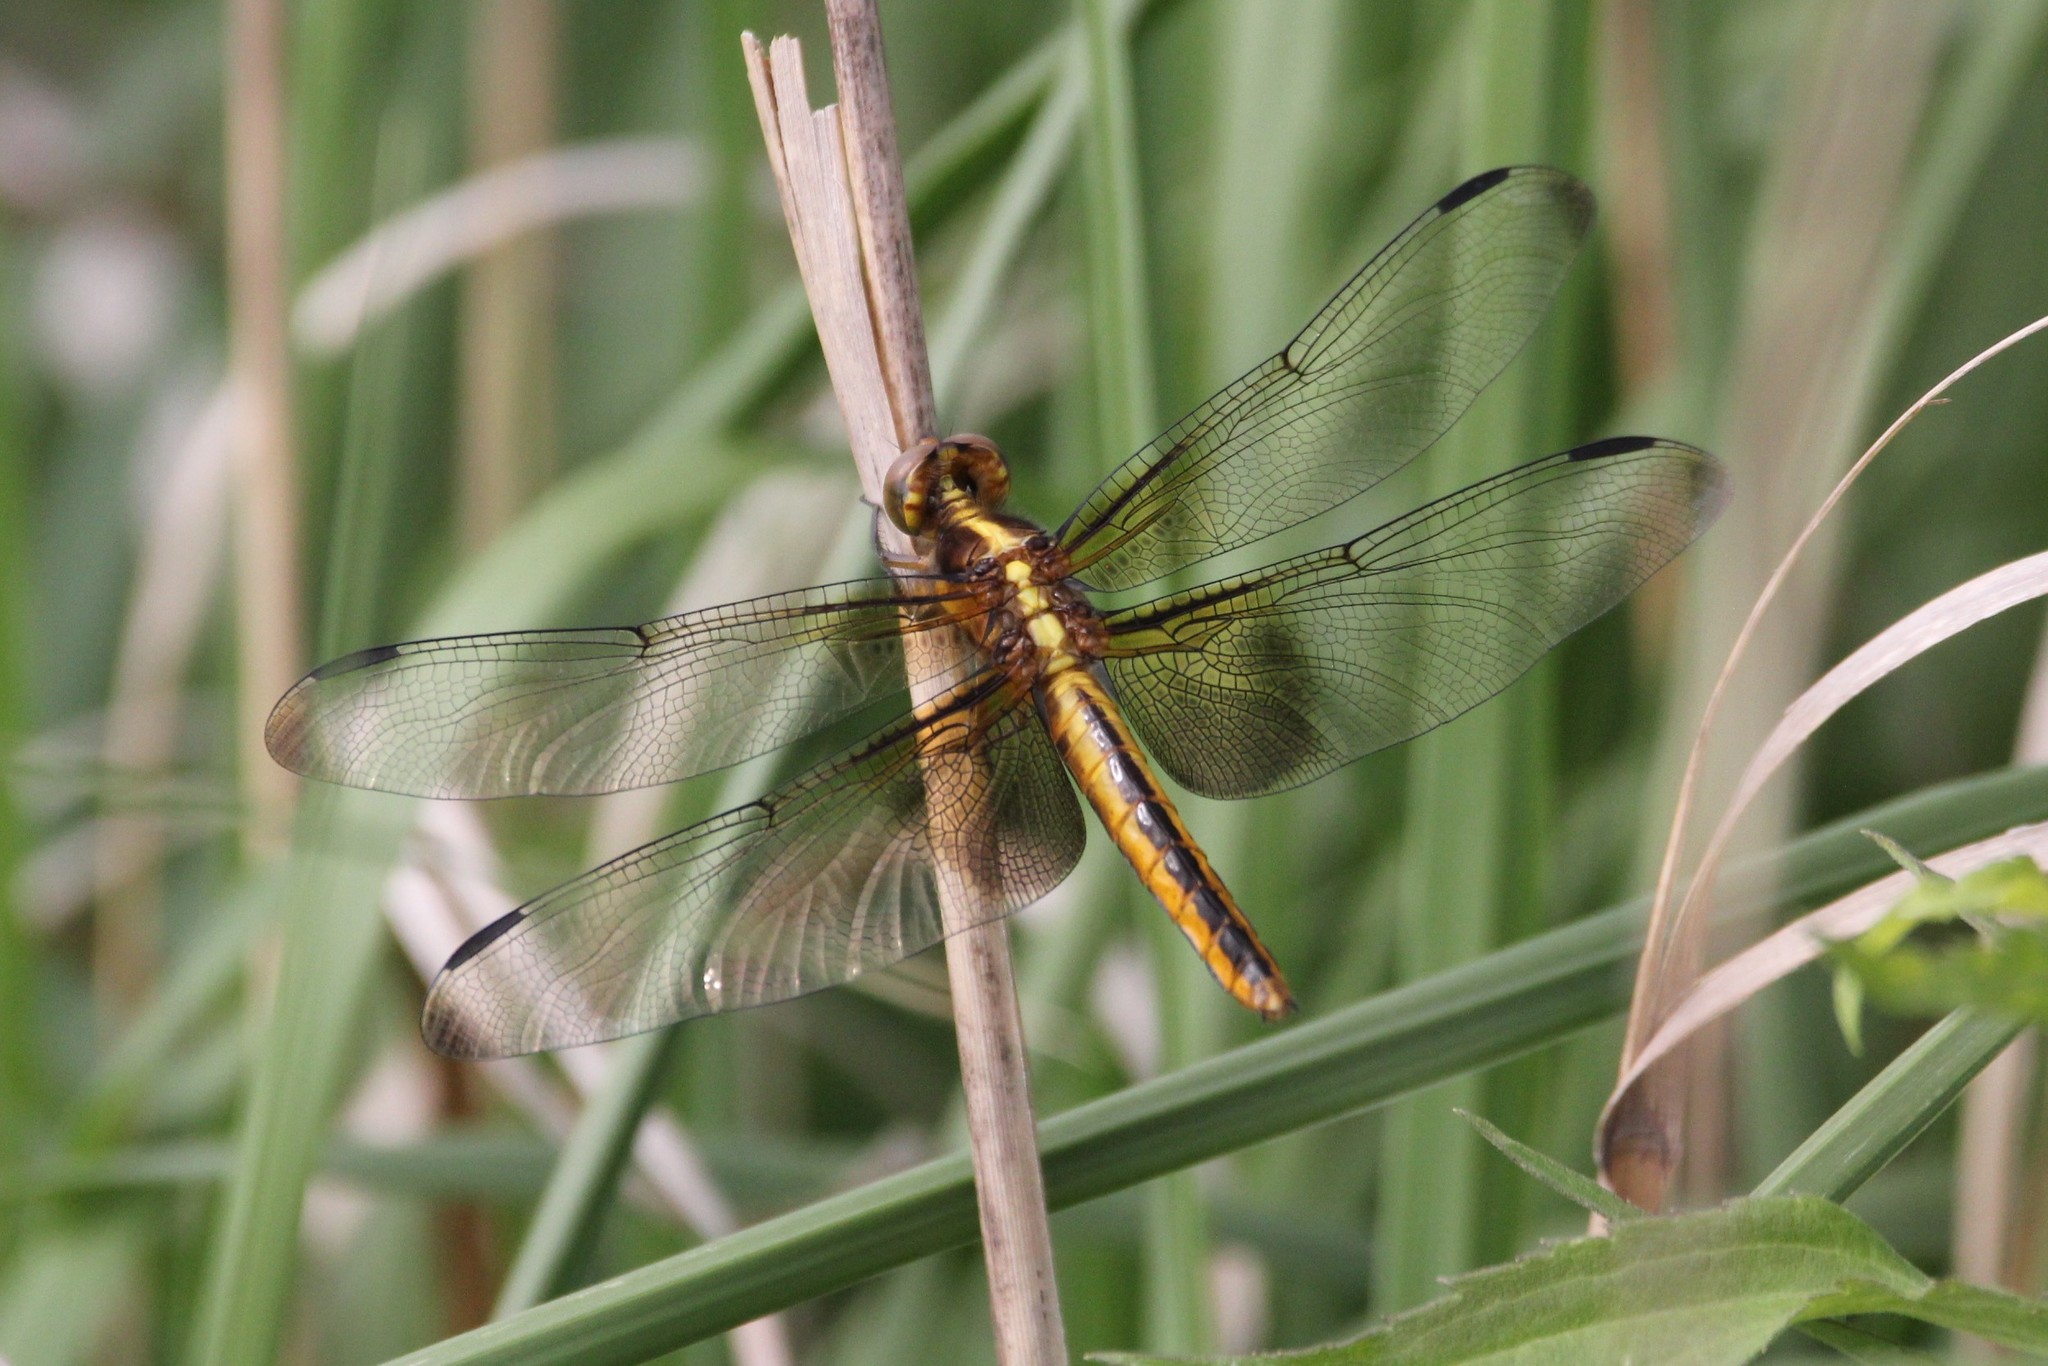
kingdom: Animalia
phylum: Arthropoda
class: Insecta
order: Odonata
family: Libellulidae
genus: Libellula
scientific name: Libellula luctuosa
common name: Widow skimmer
